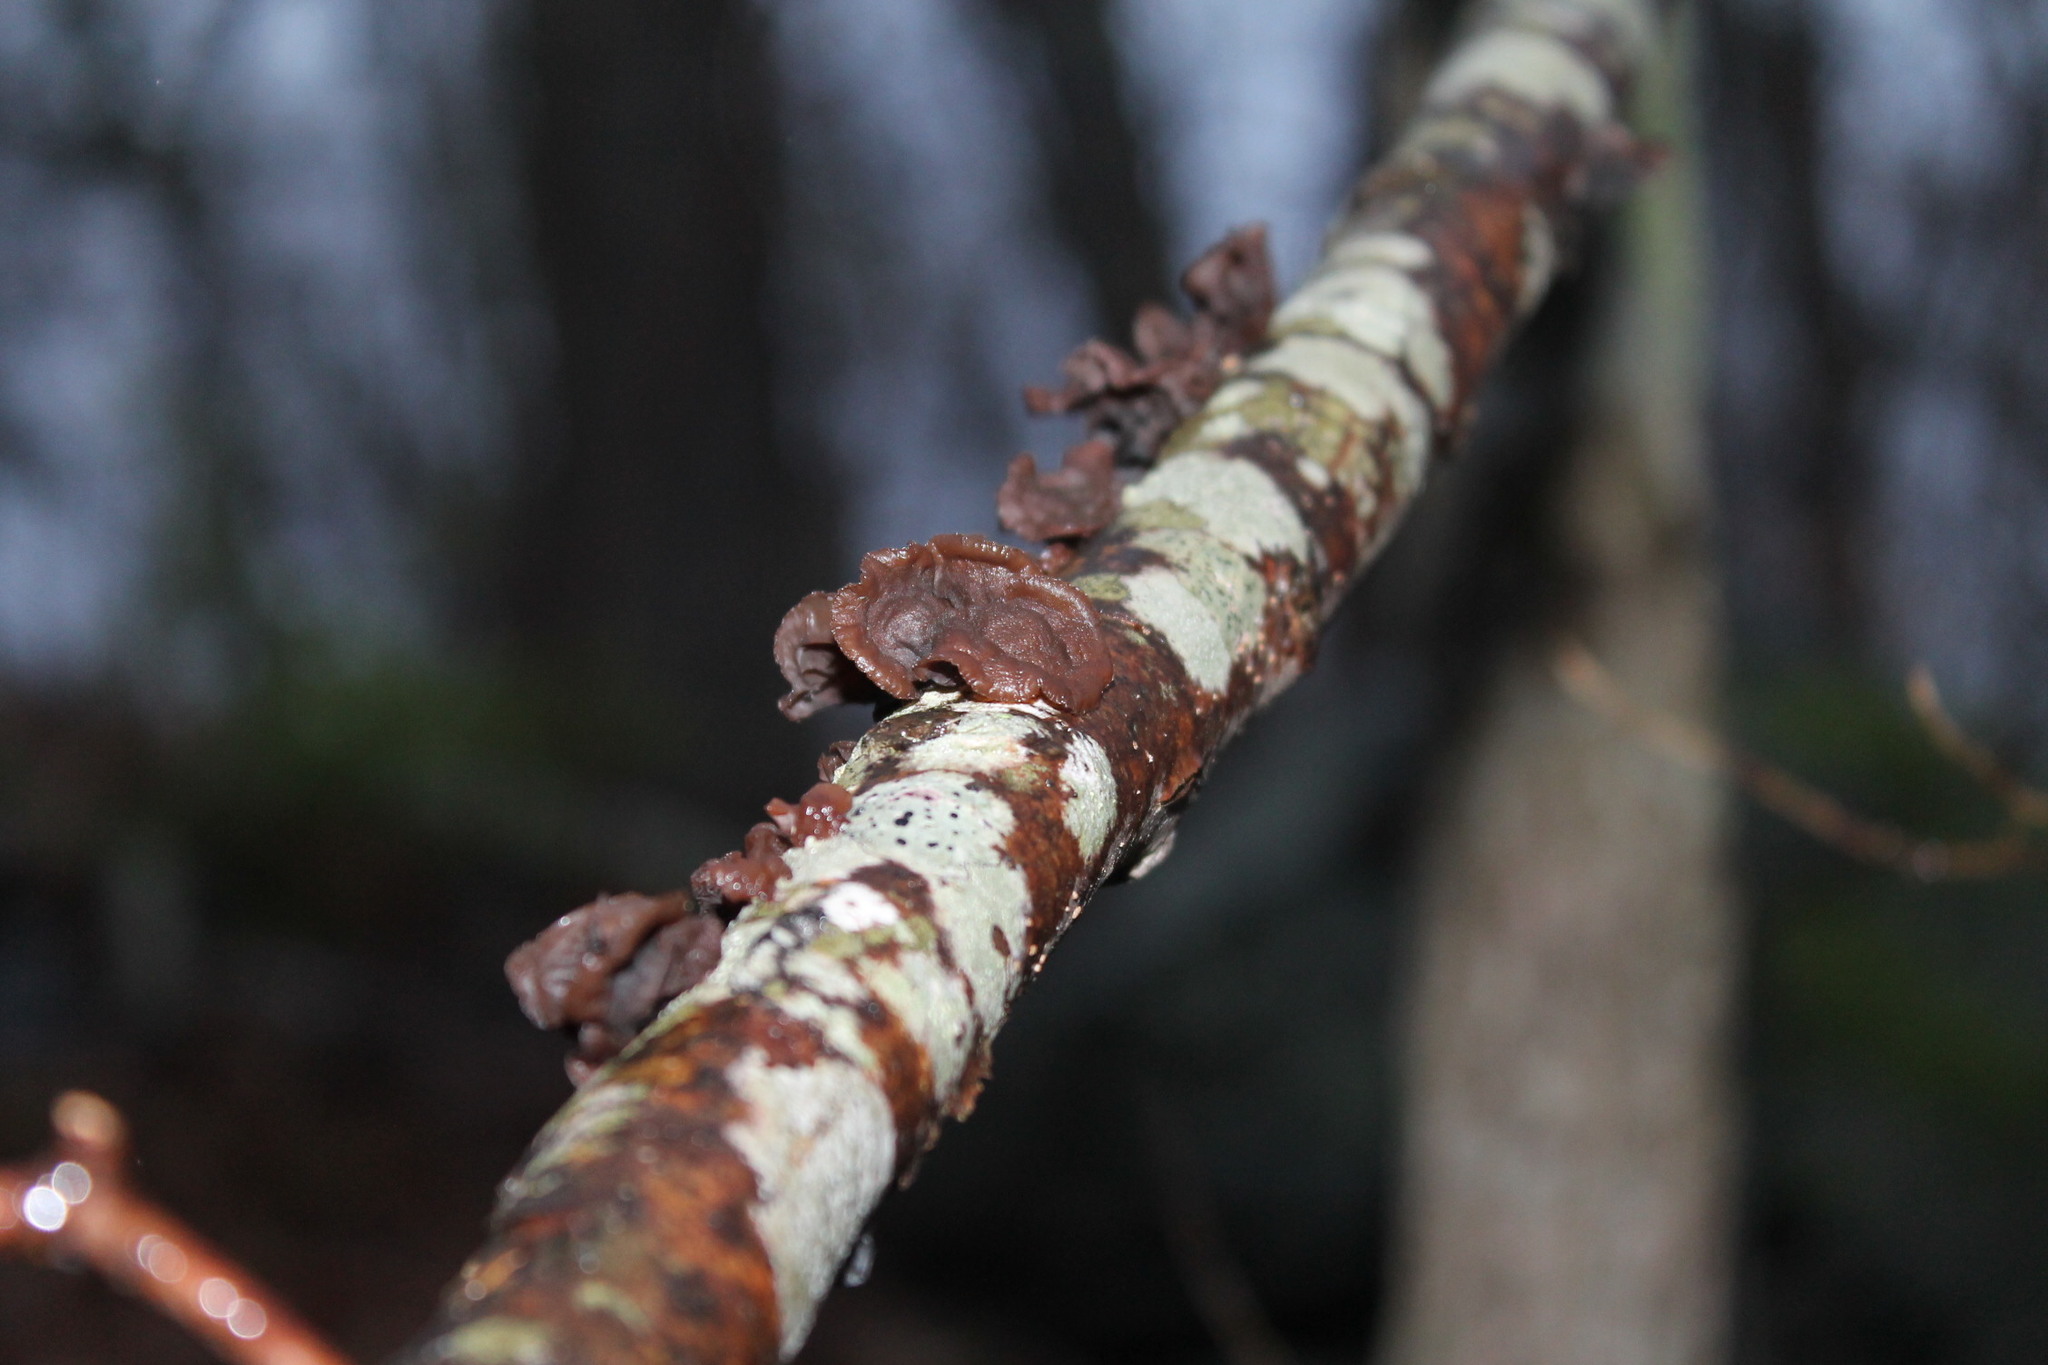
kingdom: Fungi
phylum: Basidiomycota
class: Agaricomycetes
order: Auriculariales
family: Auriculariaceae
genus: Exidia
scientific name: Exidia
